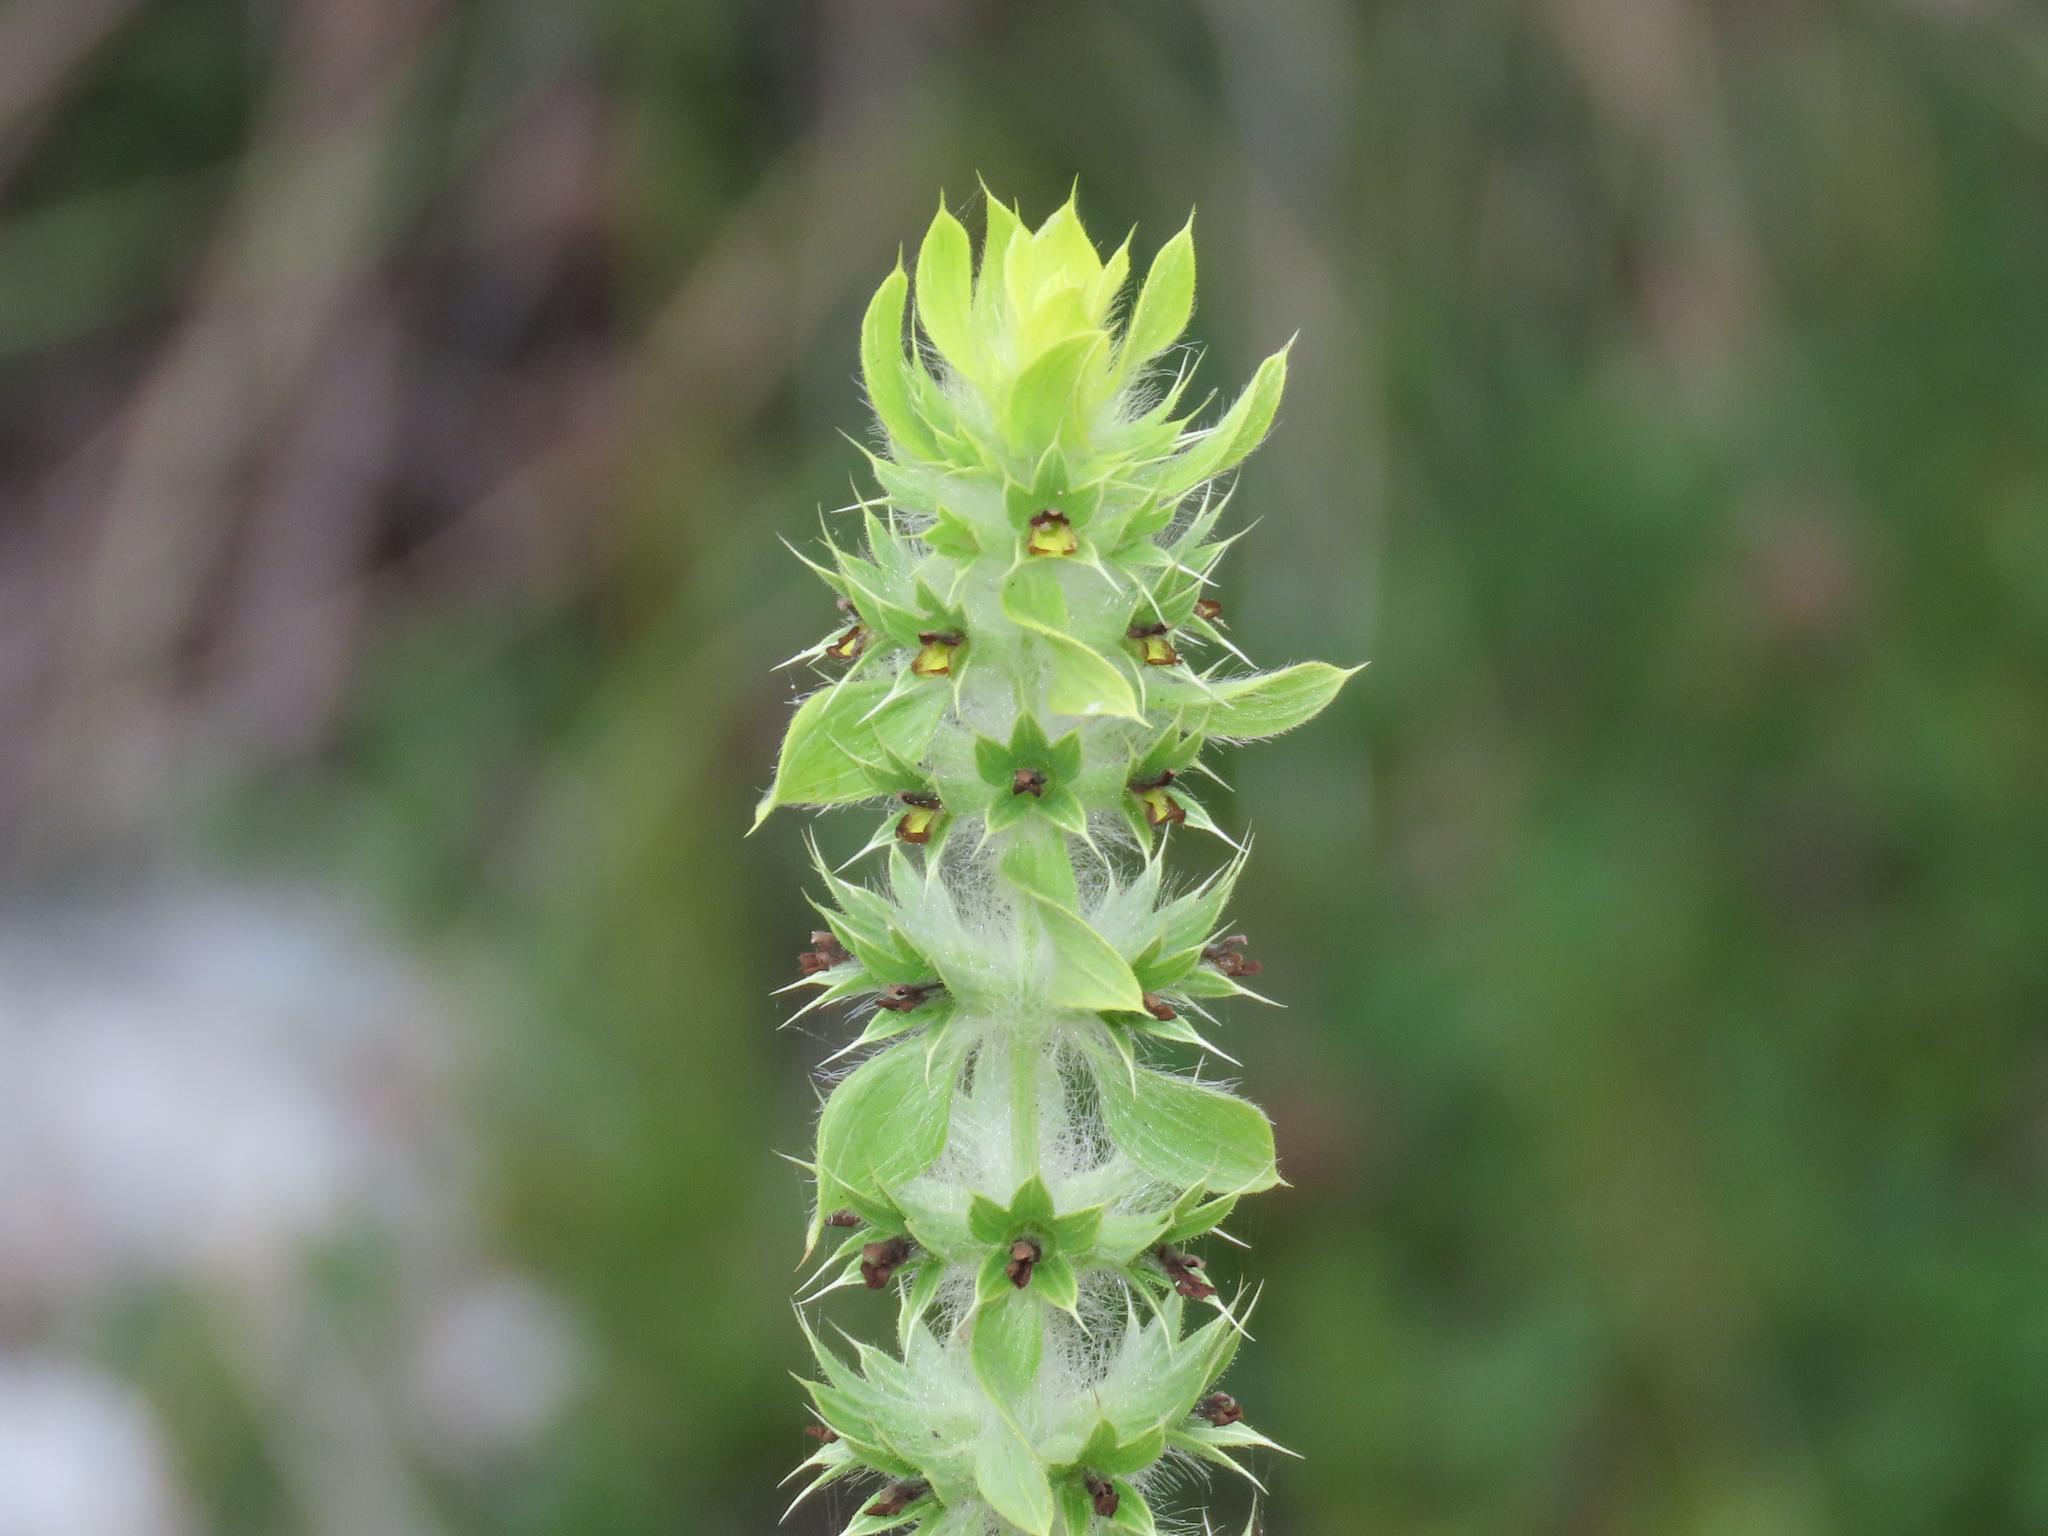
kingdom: Plantae
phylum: Tracheophyta
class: Magnoliopsida
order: Lamiales
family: Lamiaceae
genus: Sideritis
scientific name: Sideritis montana
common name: Mountain ironwort
